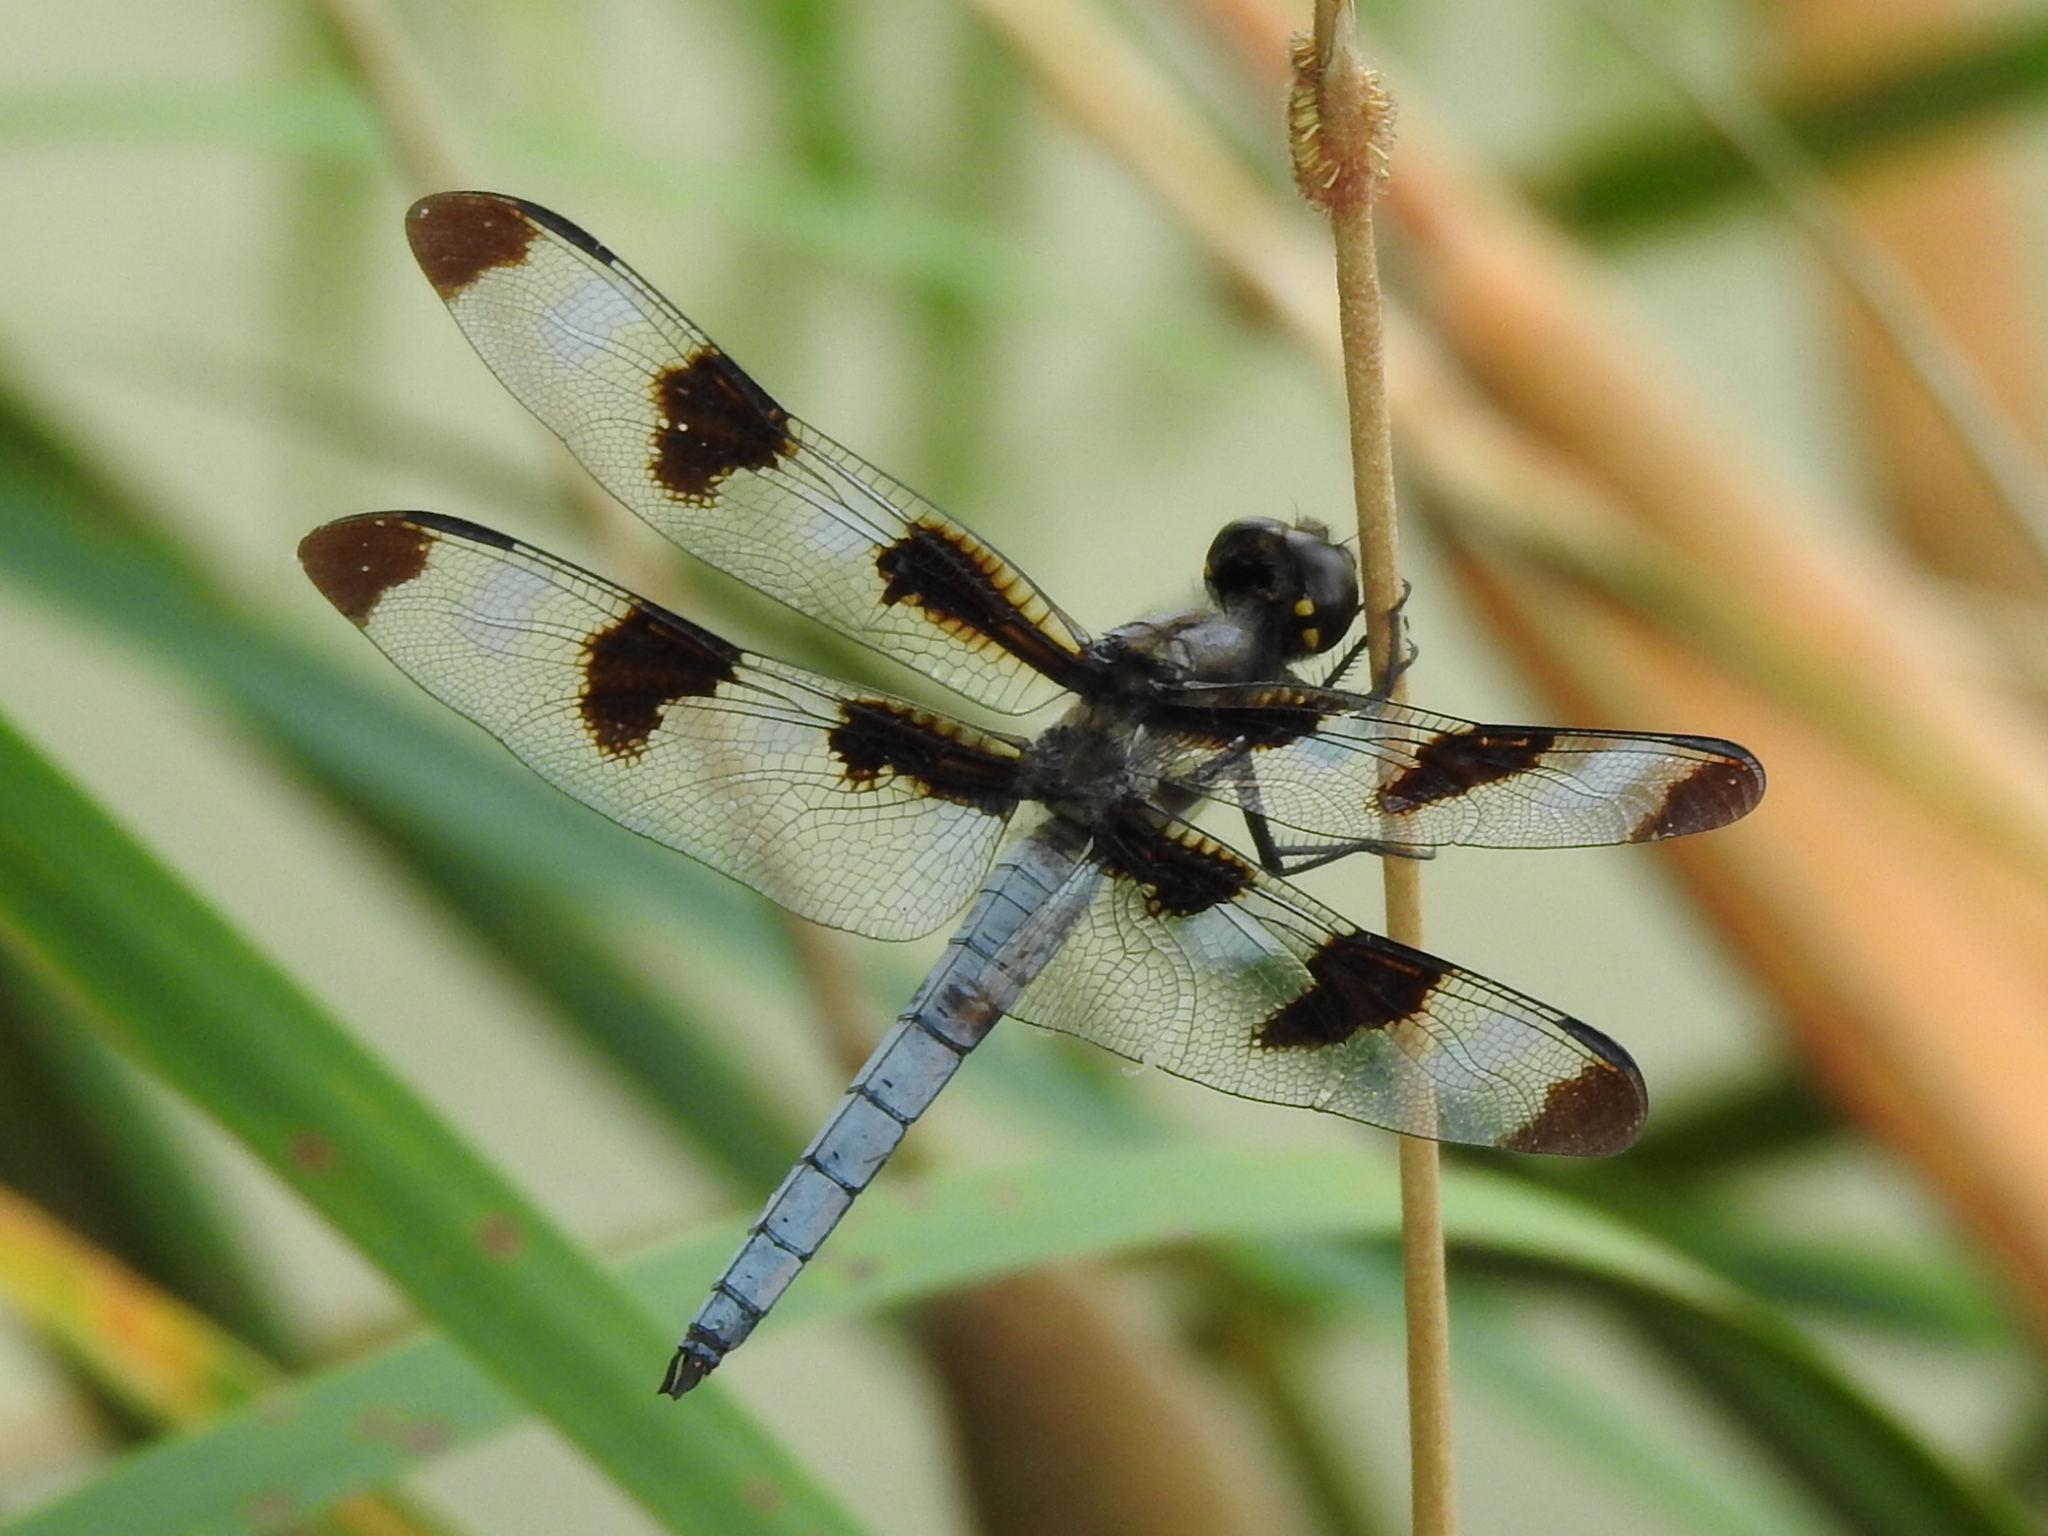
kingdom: Animalia
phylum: Arthropoda
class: Insecta
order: Odonata
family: Libellulidae
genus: Libellula
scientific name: Libellula pulchella
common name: Twelve-spotted skimmer
